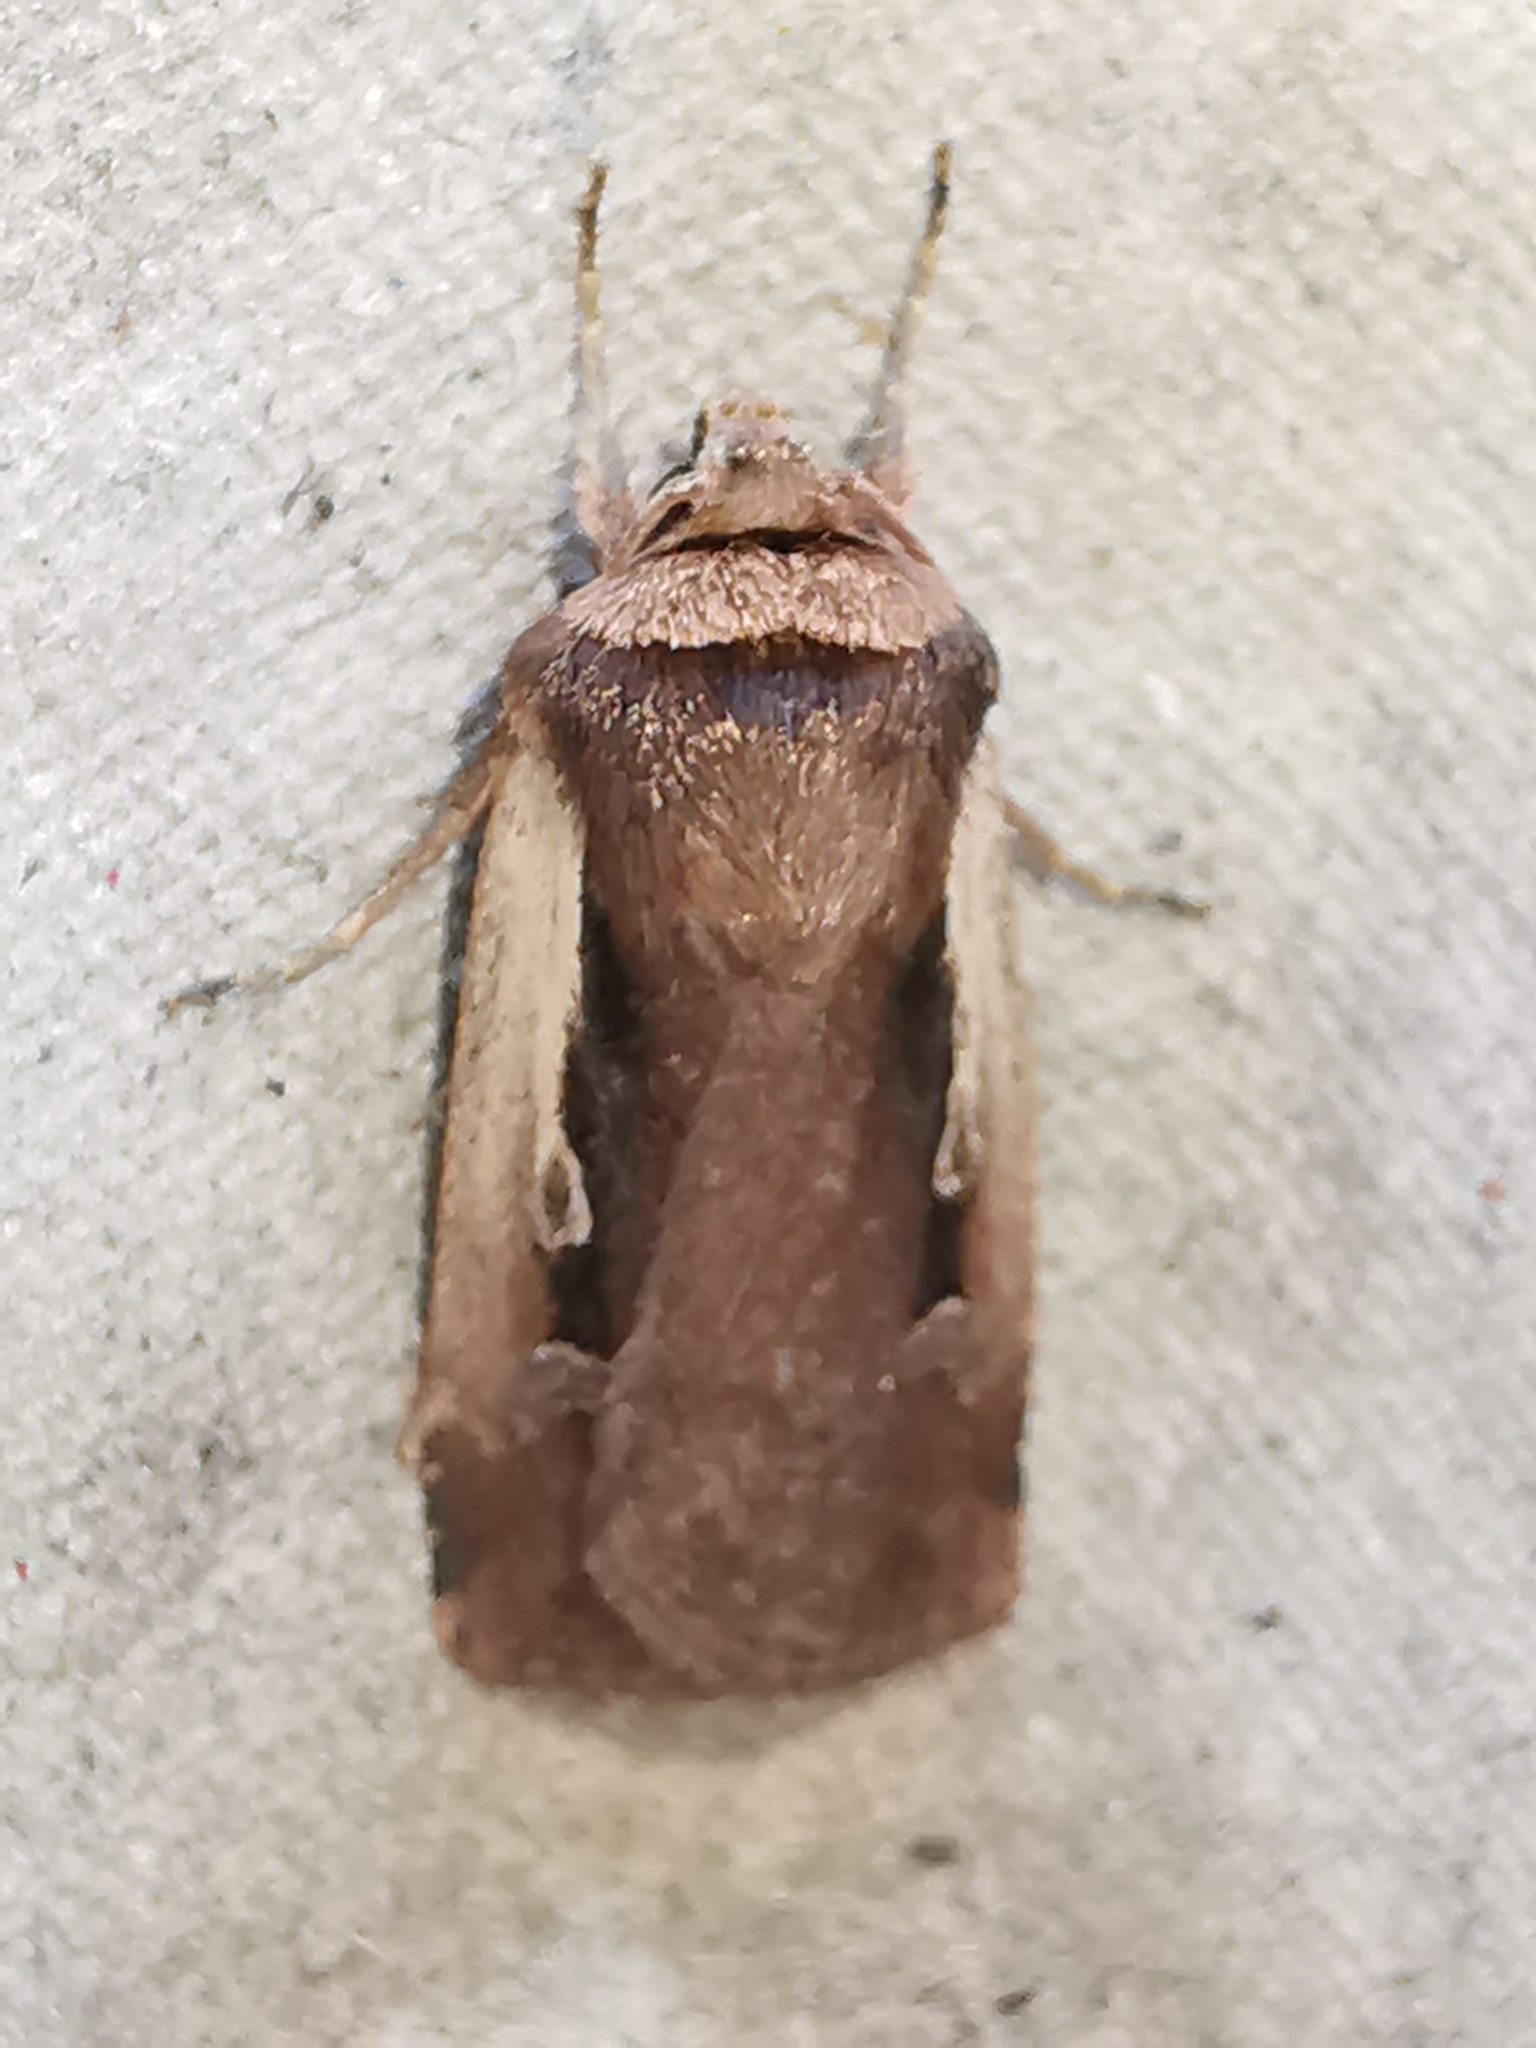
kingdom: Animalia
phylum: Arthropoda
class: Insecta
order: Lepidoptera
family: Noctuidae
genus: Ochropleura
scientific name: Ochropleura plecta
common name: Flame shoulder
